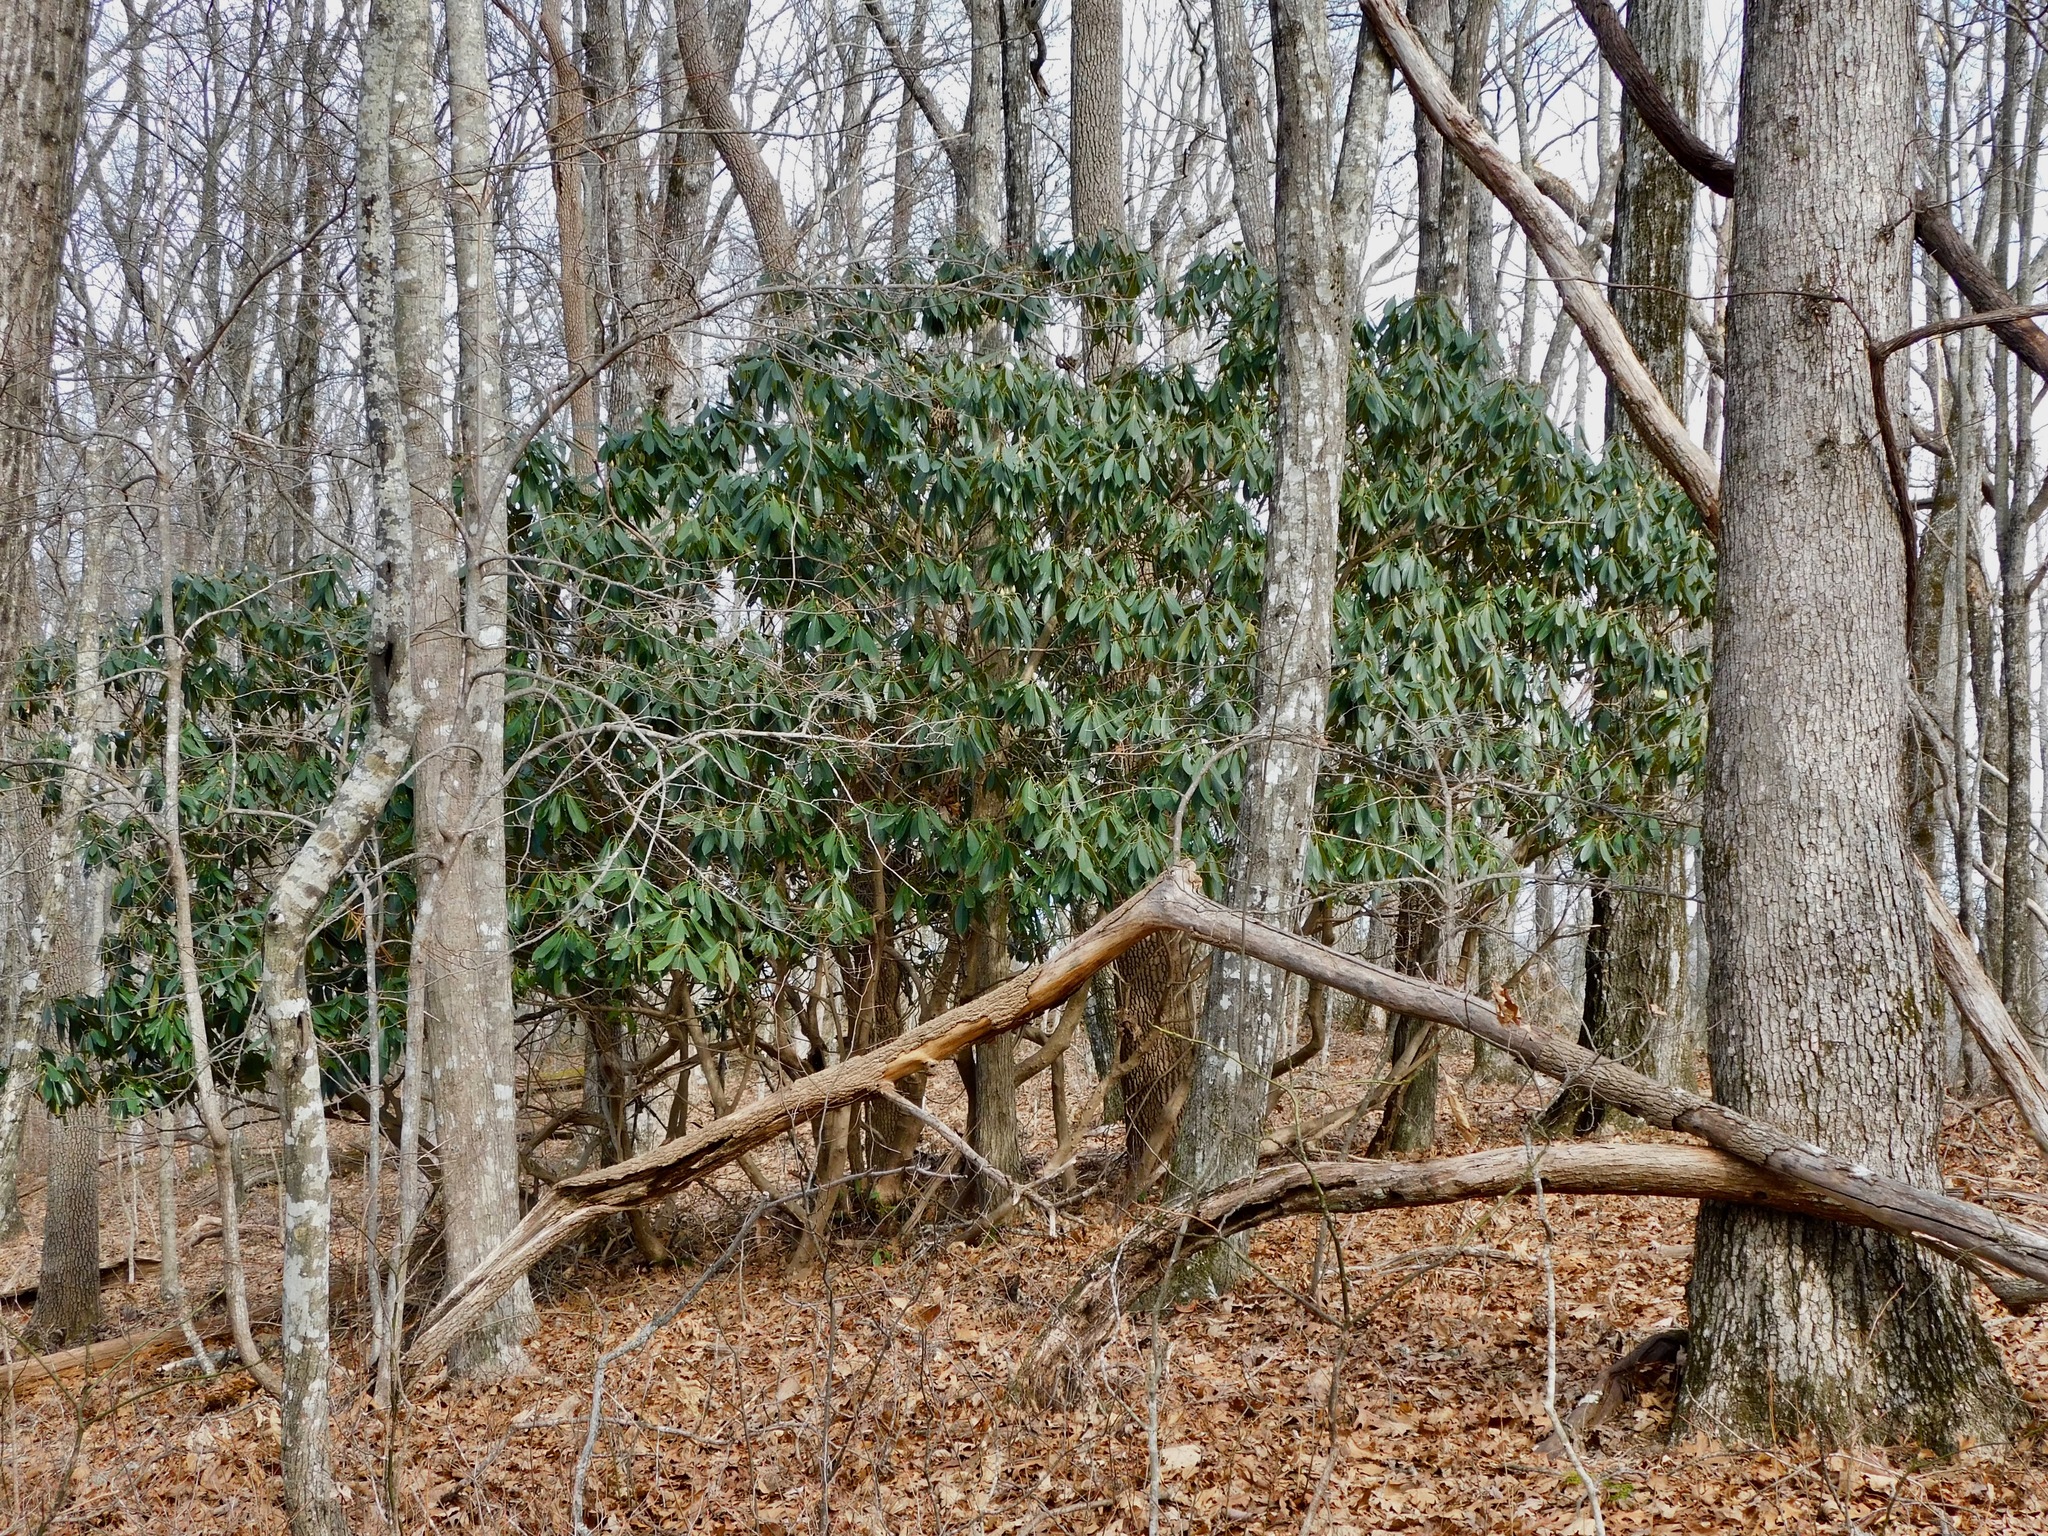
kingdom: Plantae
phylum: Tracheophyta
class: Magnoliopsida
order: Ericales
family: Ericaceae
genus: Rhododendron
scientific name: Rhododendron maximum
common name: Great rhododendron
